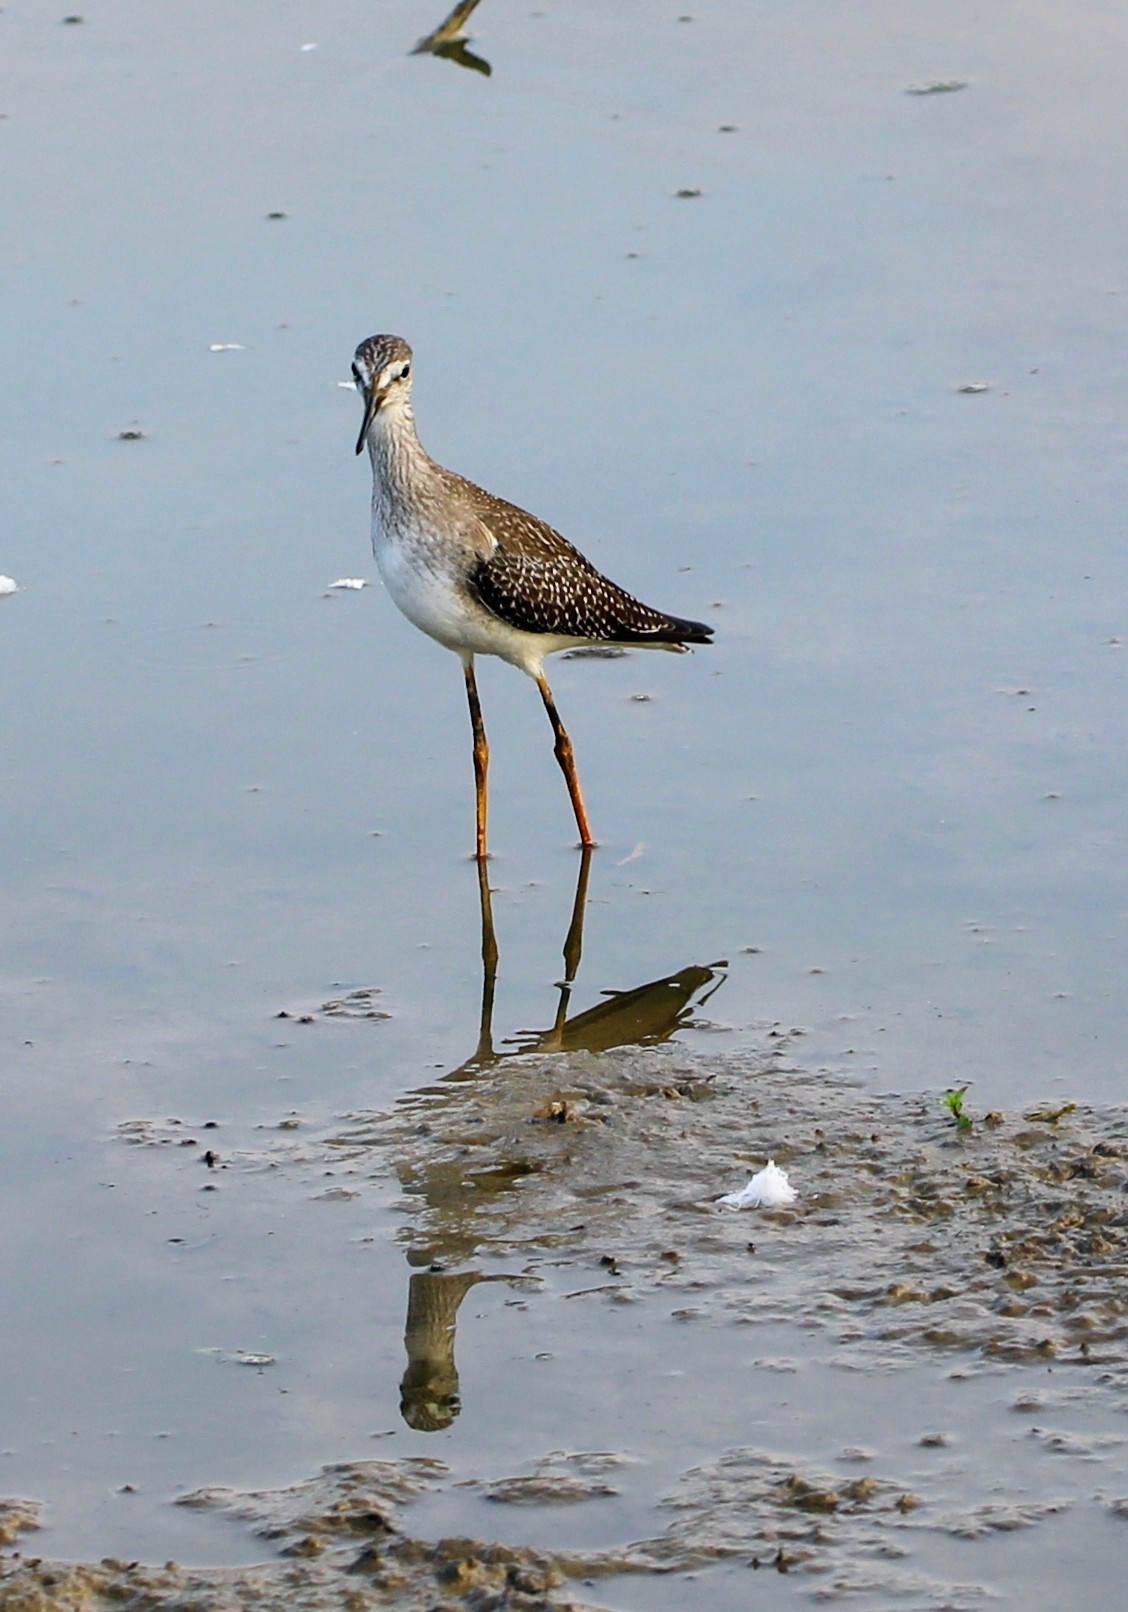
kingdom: Animalia
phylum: Chordata
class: Aves
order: Charadriiformes
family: Scolopacidae
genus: Tringa
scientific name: Tringa flavipes
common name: Lesser yellowlegs
